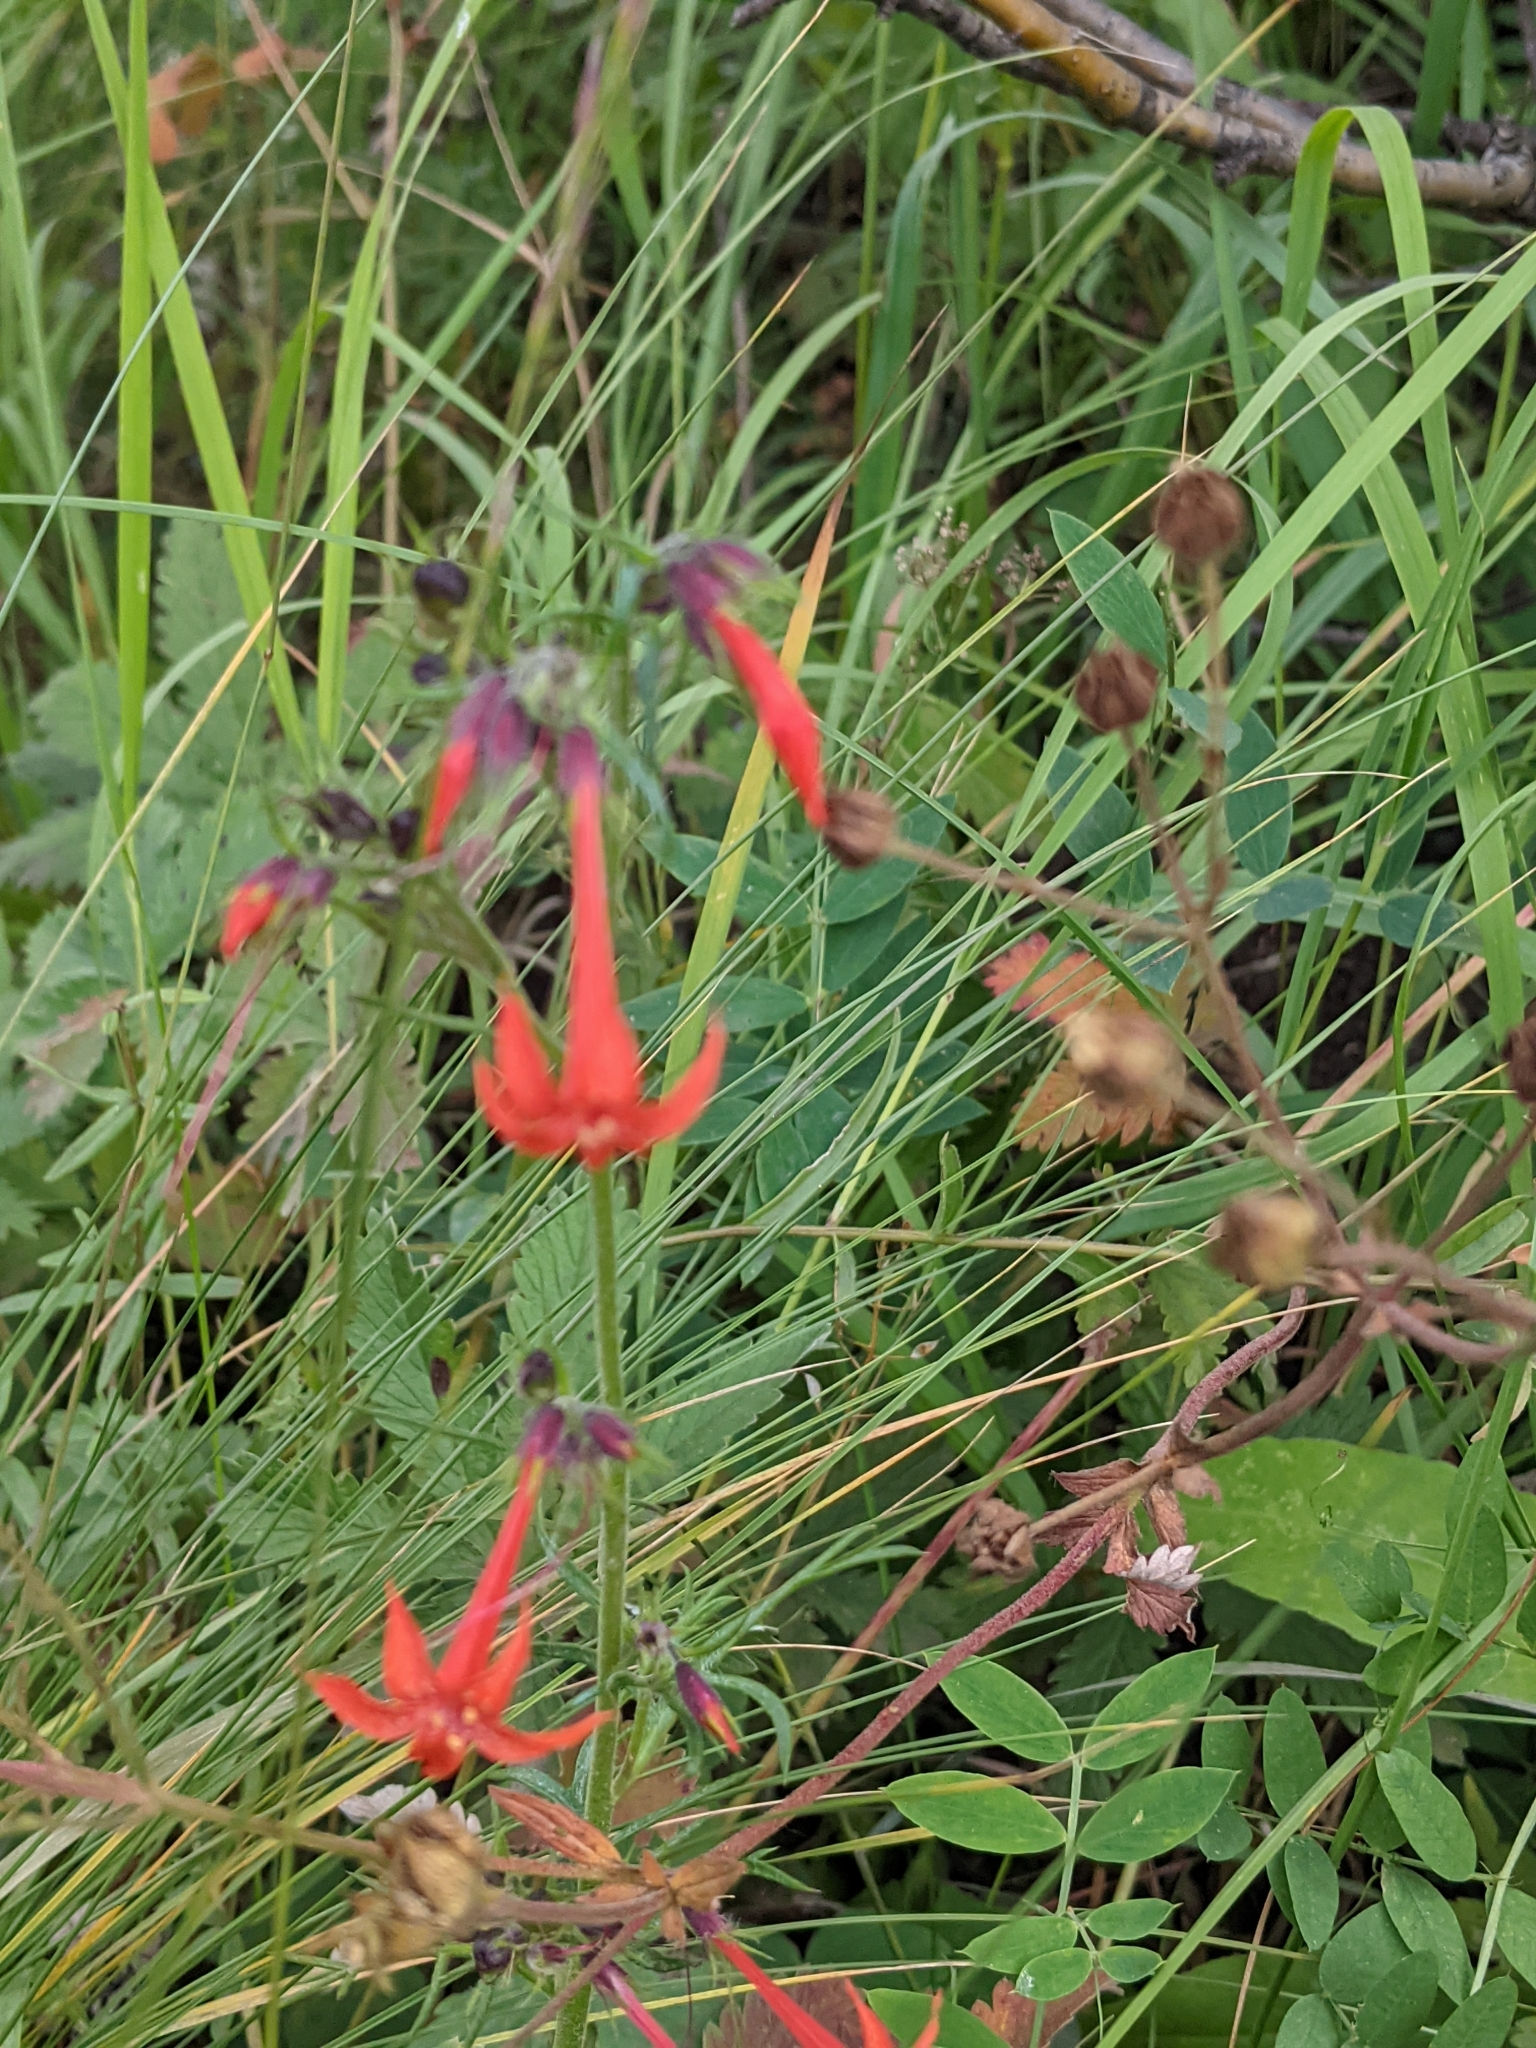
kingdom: Plantae
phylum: Tracheophyta
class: Magnoliopsida
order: Ericales
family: Polemoniaceae
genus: Ipomopsis
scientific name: Ipomopsis aggregata
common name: Scarlet gilia
